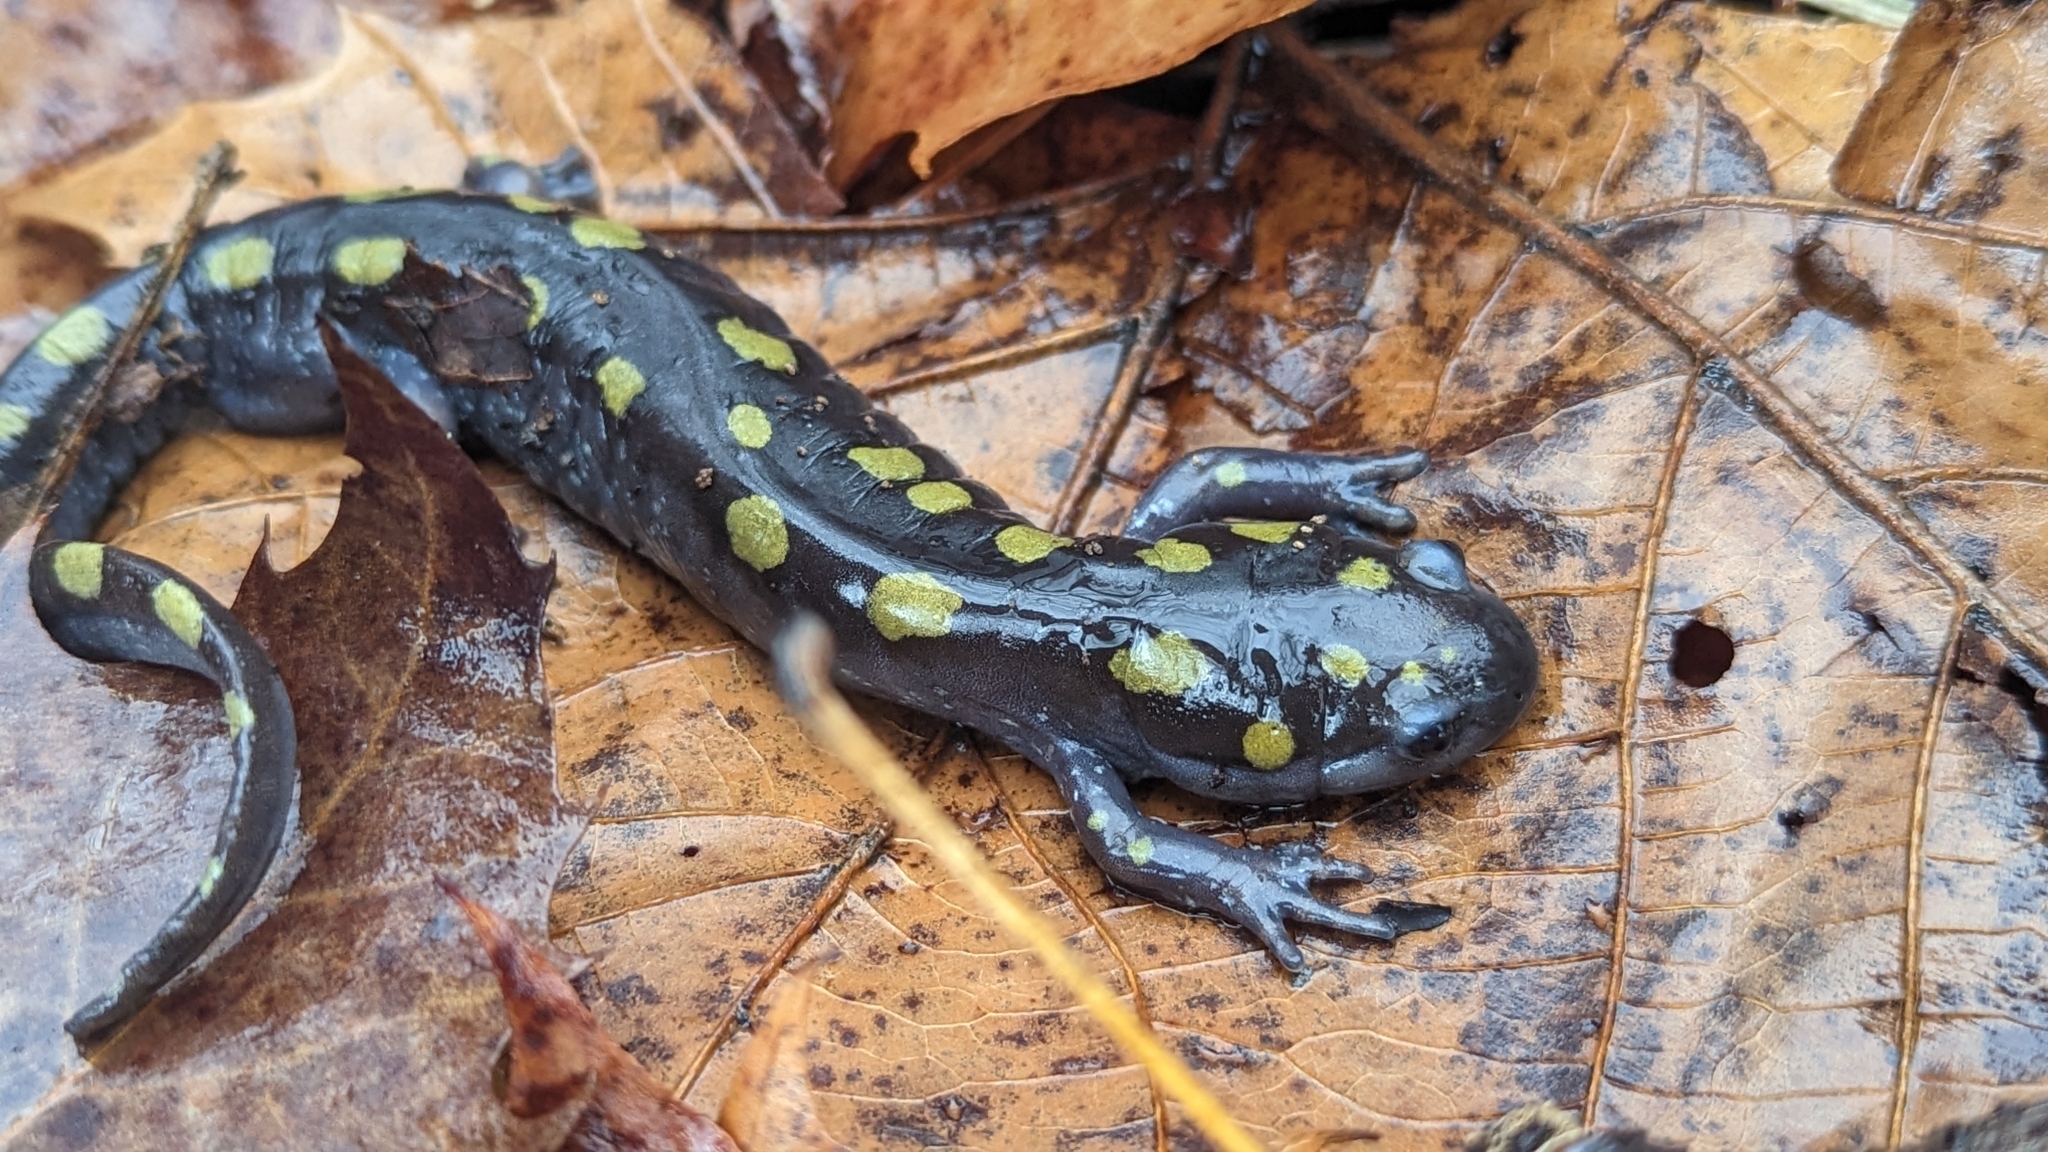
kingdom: Animalia
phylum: Chordata
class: Amphibia
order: Caudata
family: Ambystomatidae
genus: Ambystoma
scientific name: Ambystoma maculatum
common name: Spotted salamander
